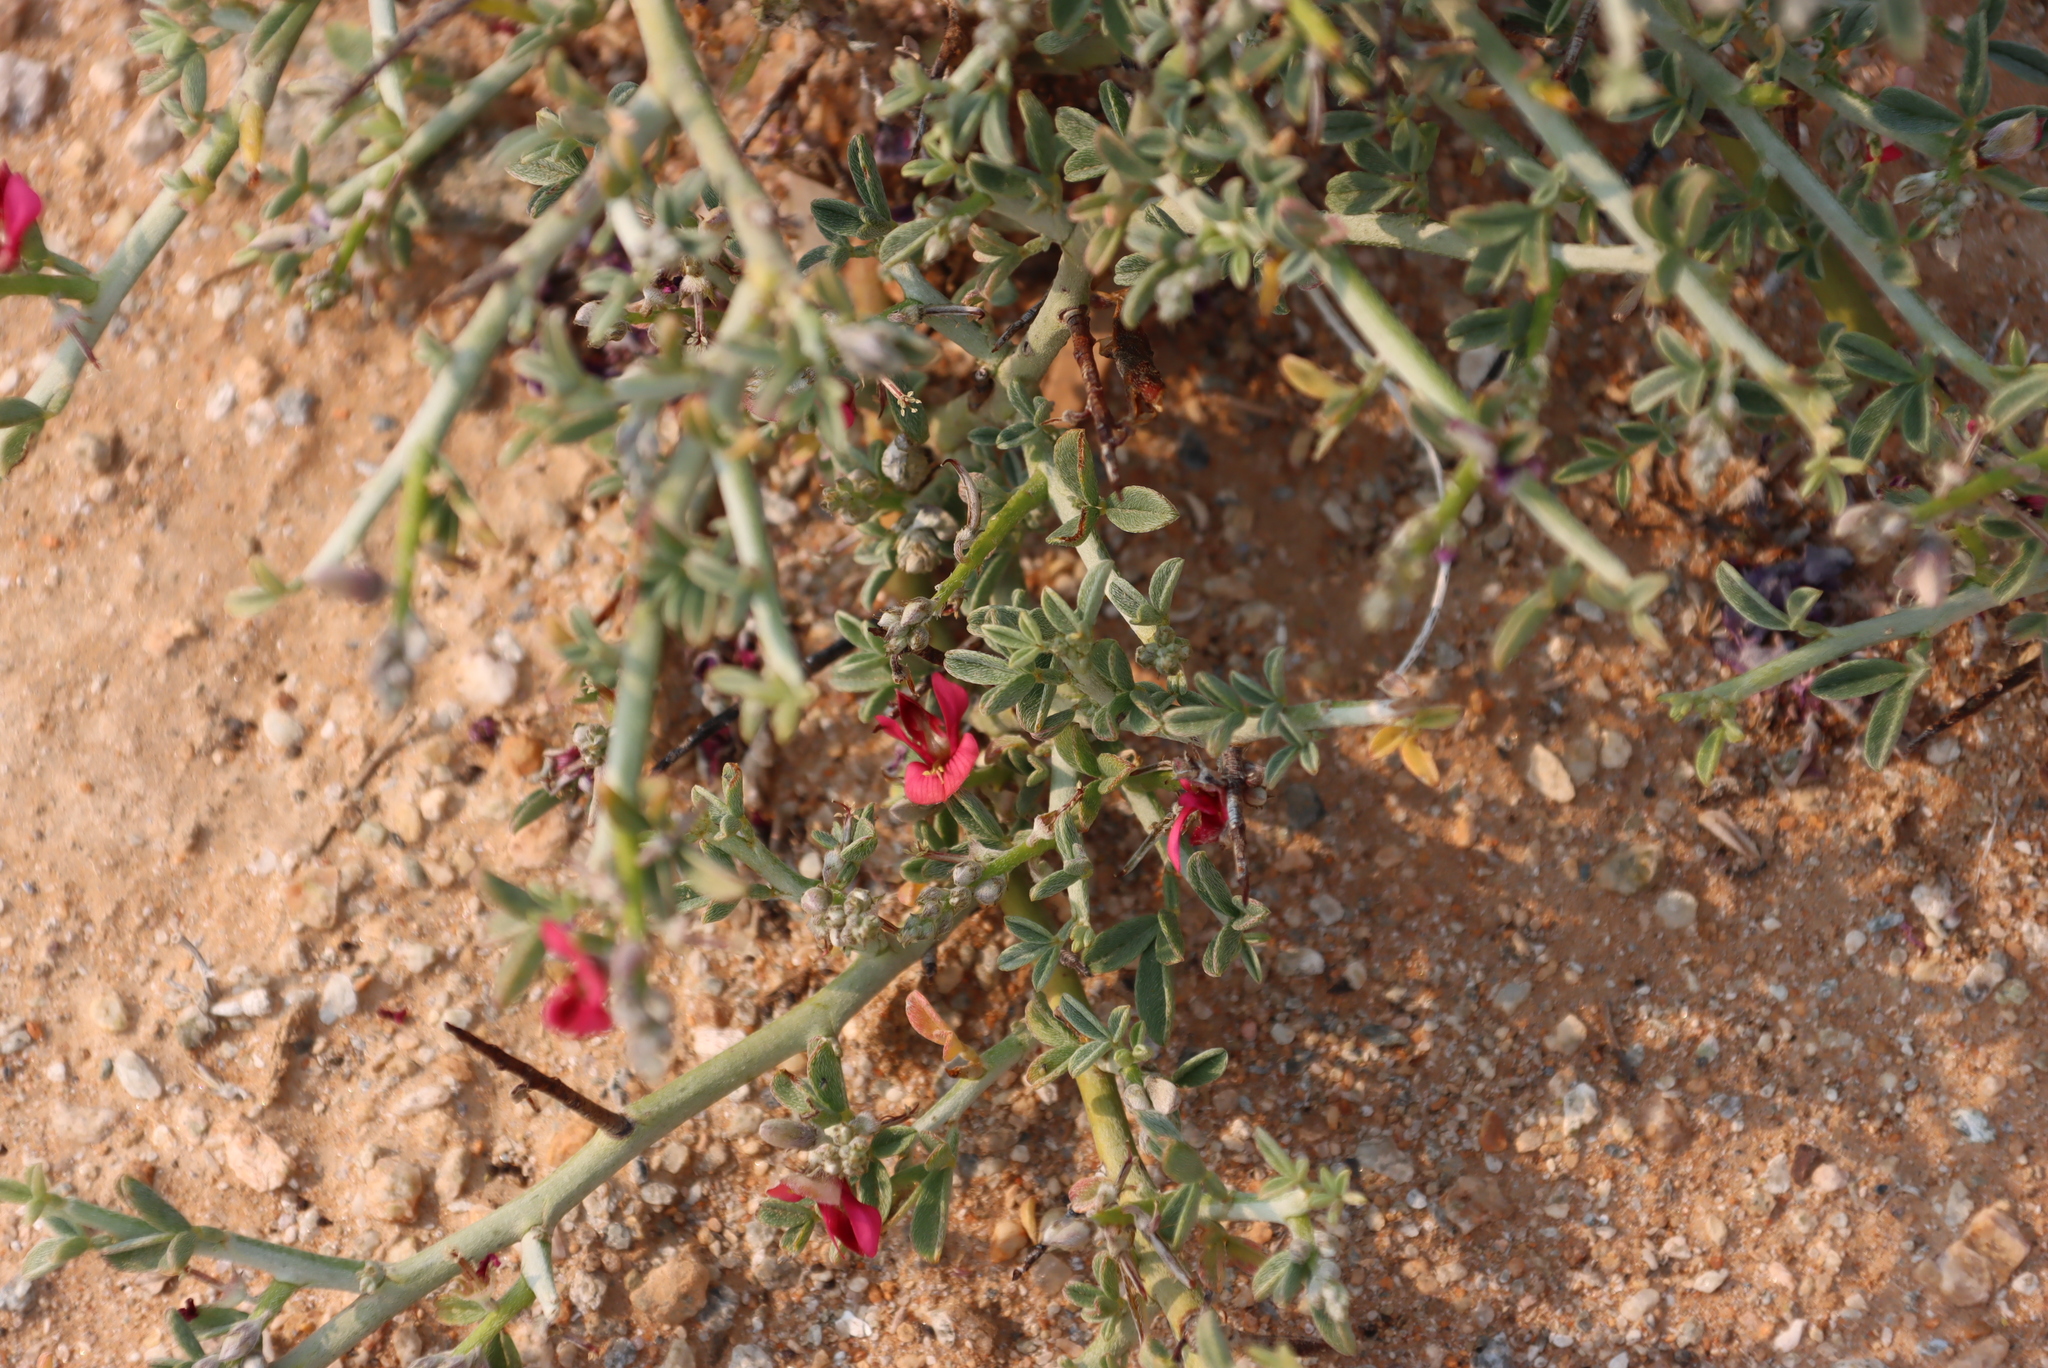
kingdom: Plantae
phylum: Tracheophyta
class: Magnoliopsida
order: Fabales
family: Fabaceae
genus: Indigofera
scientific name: Indigofera pungens
